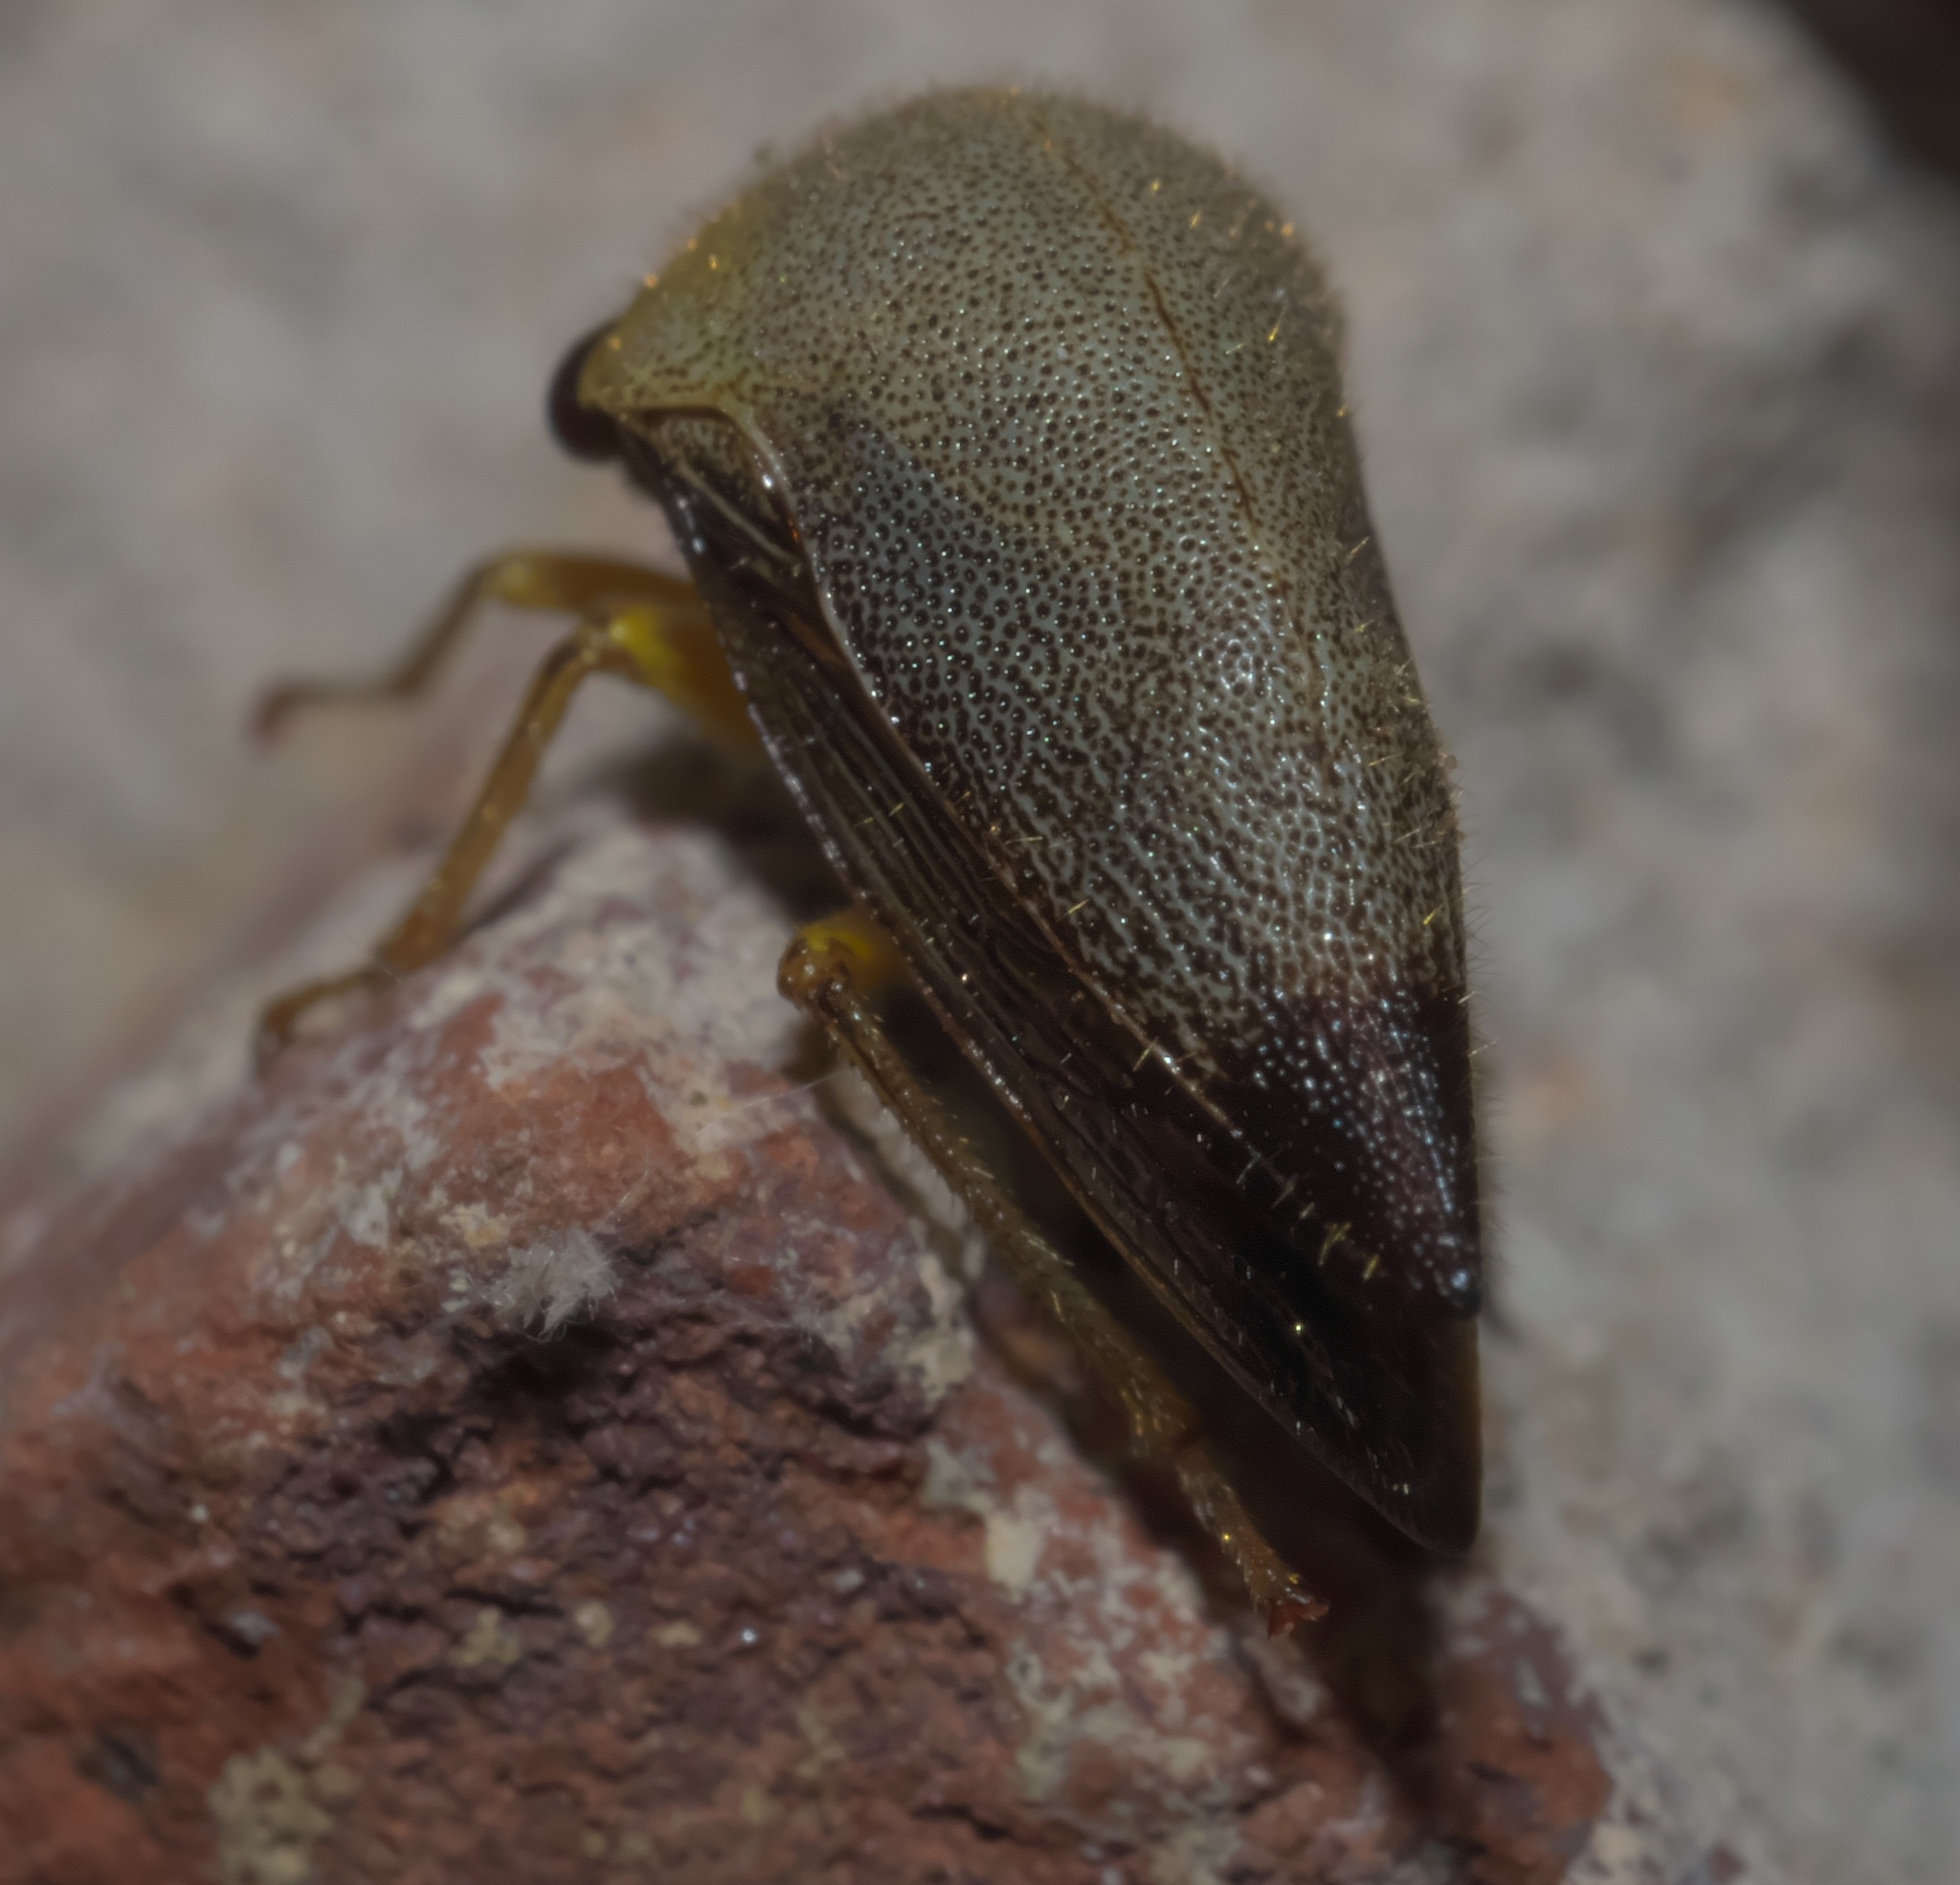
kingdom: Animalia
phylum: Arthropoda
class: Insecta
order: Hemiptera
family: Membracidae
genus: Carynota
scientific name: Carynota mera
